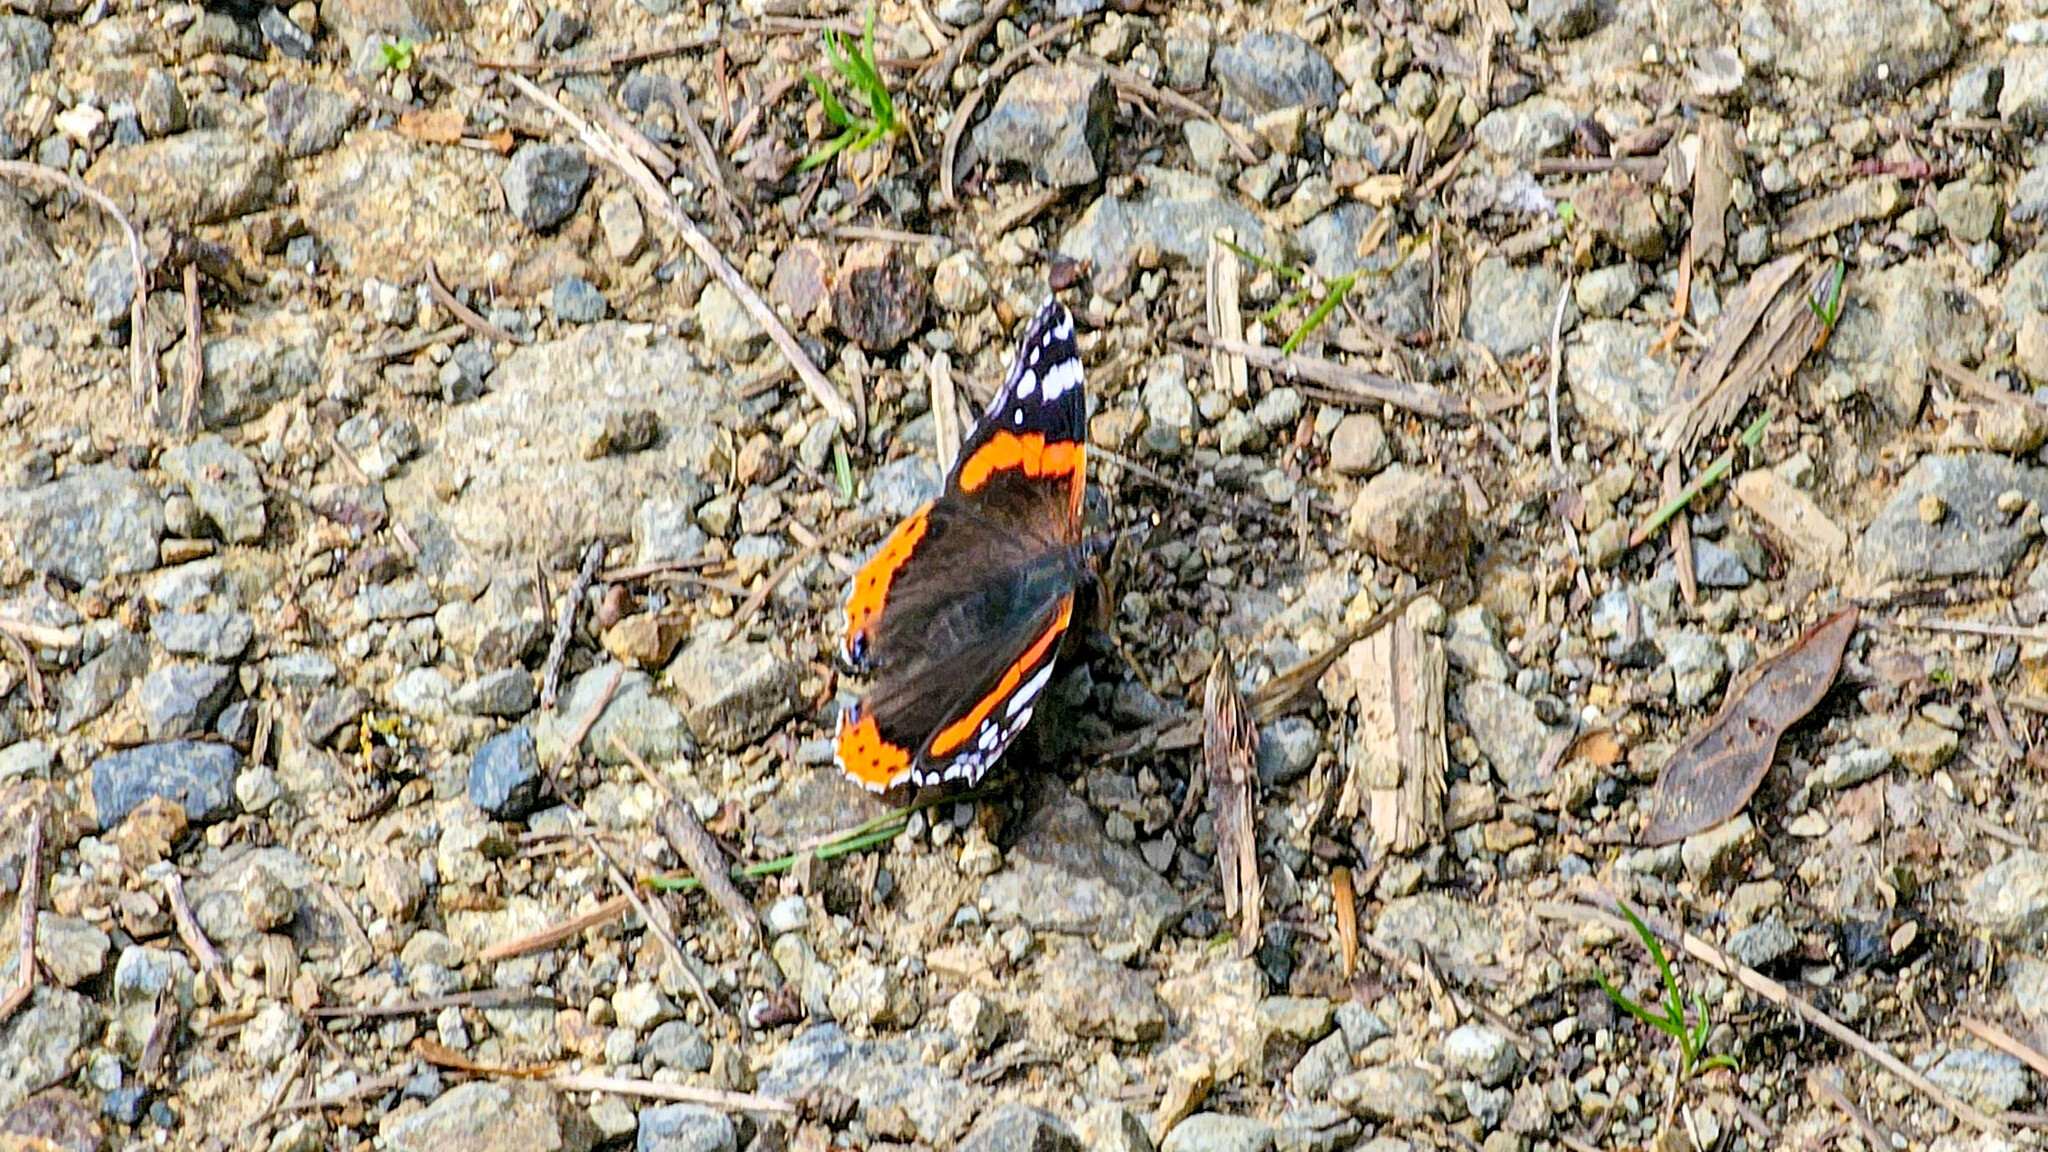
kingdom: Animalia
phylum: Arthropoda
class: Insecta
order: Lepidoptera
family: Nymphalidae
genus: Vanessa
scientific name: Vanessa atalanta
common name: Red admiral
